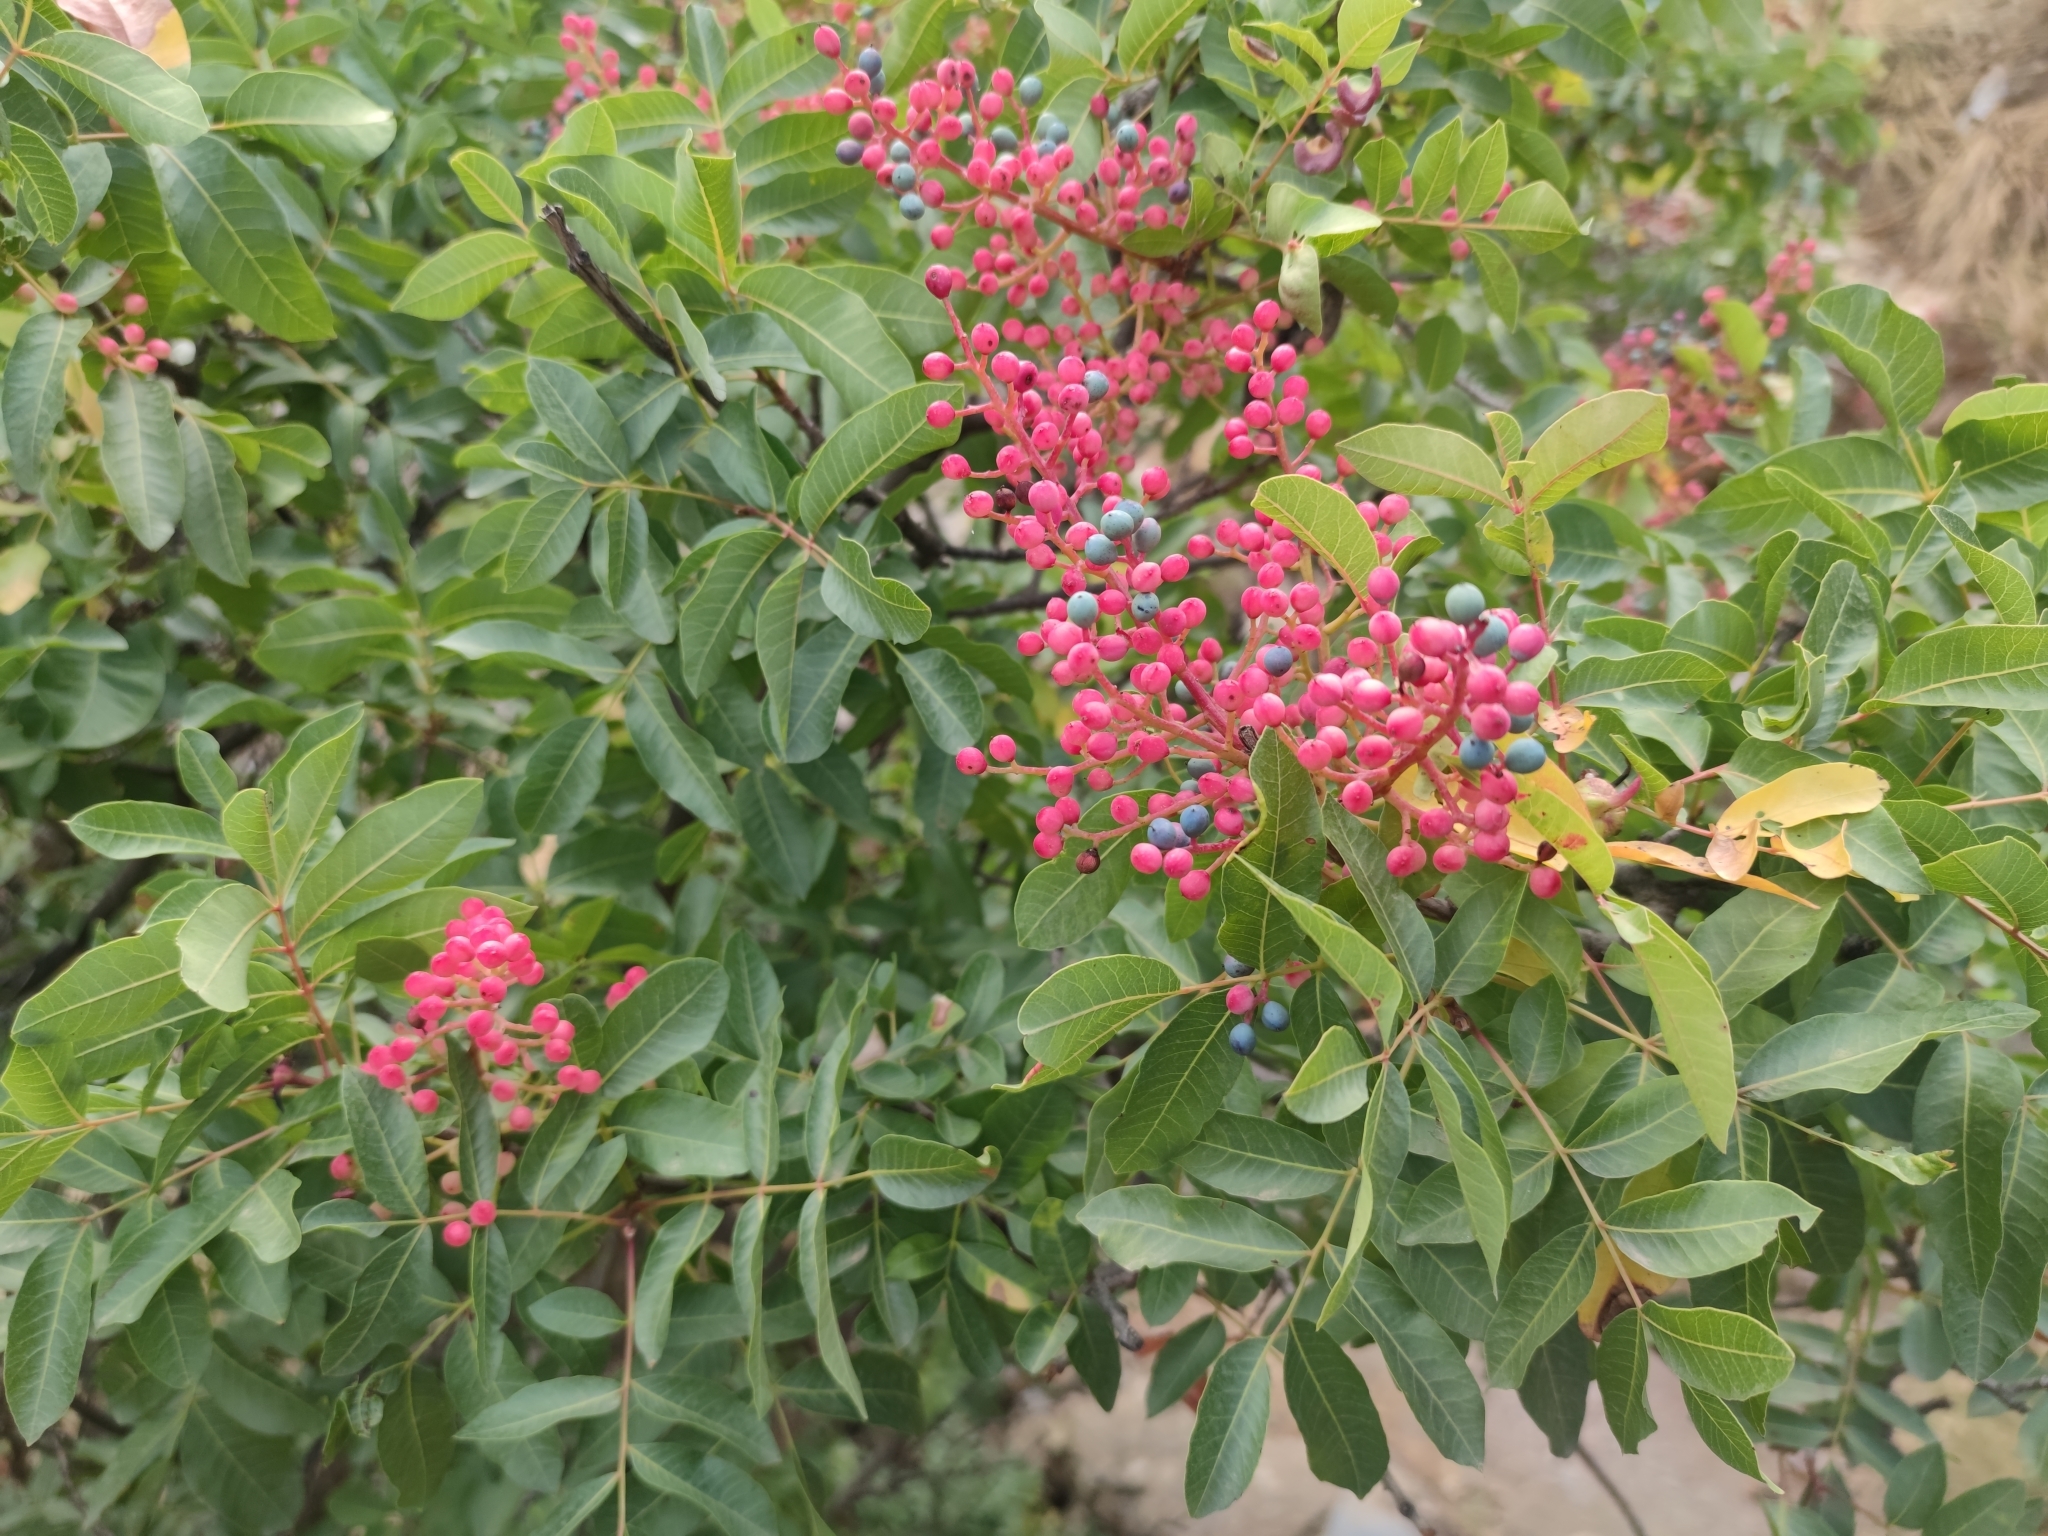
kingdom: Plantae
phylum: Tracheophyta
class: Magnoliopsida
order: Sapindales
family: Anacardiaceae
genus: Pistacia
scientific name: Pistacia terebinthus
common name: Terebinth
